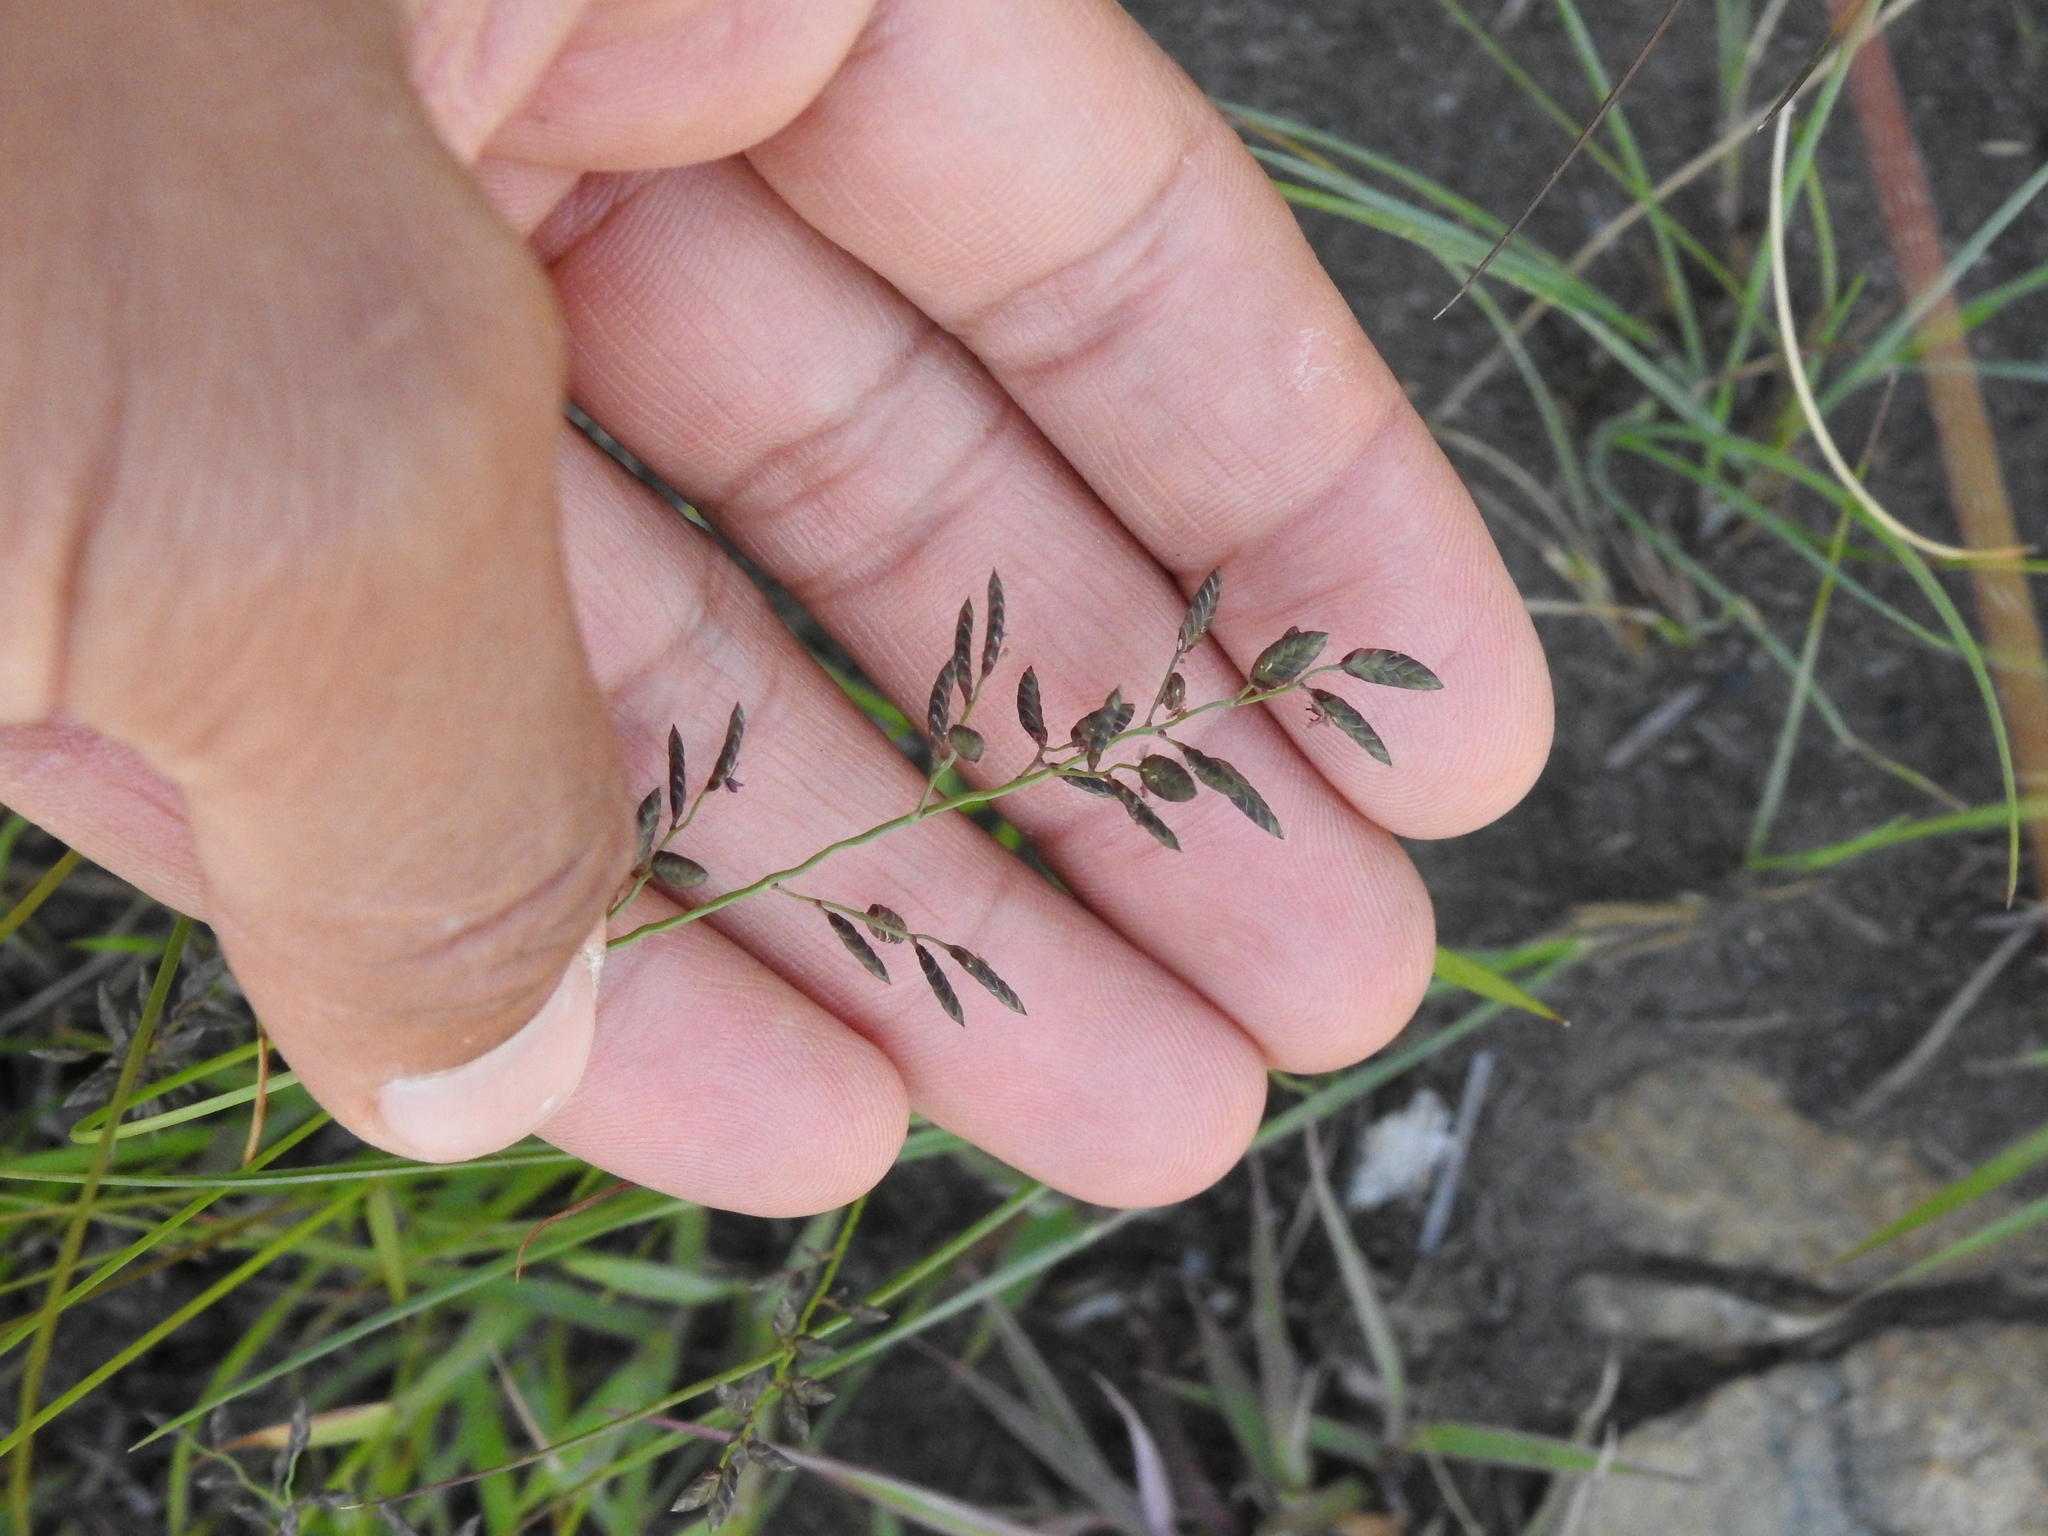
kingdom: Plantae
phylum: Tracheophyta
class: Liliopsida
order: Poales
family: Poaceae
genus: Eragrostis
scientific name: Eragrostis racemosa
